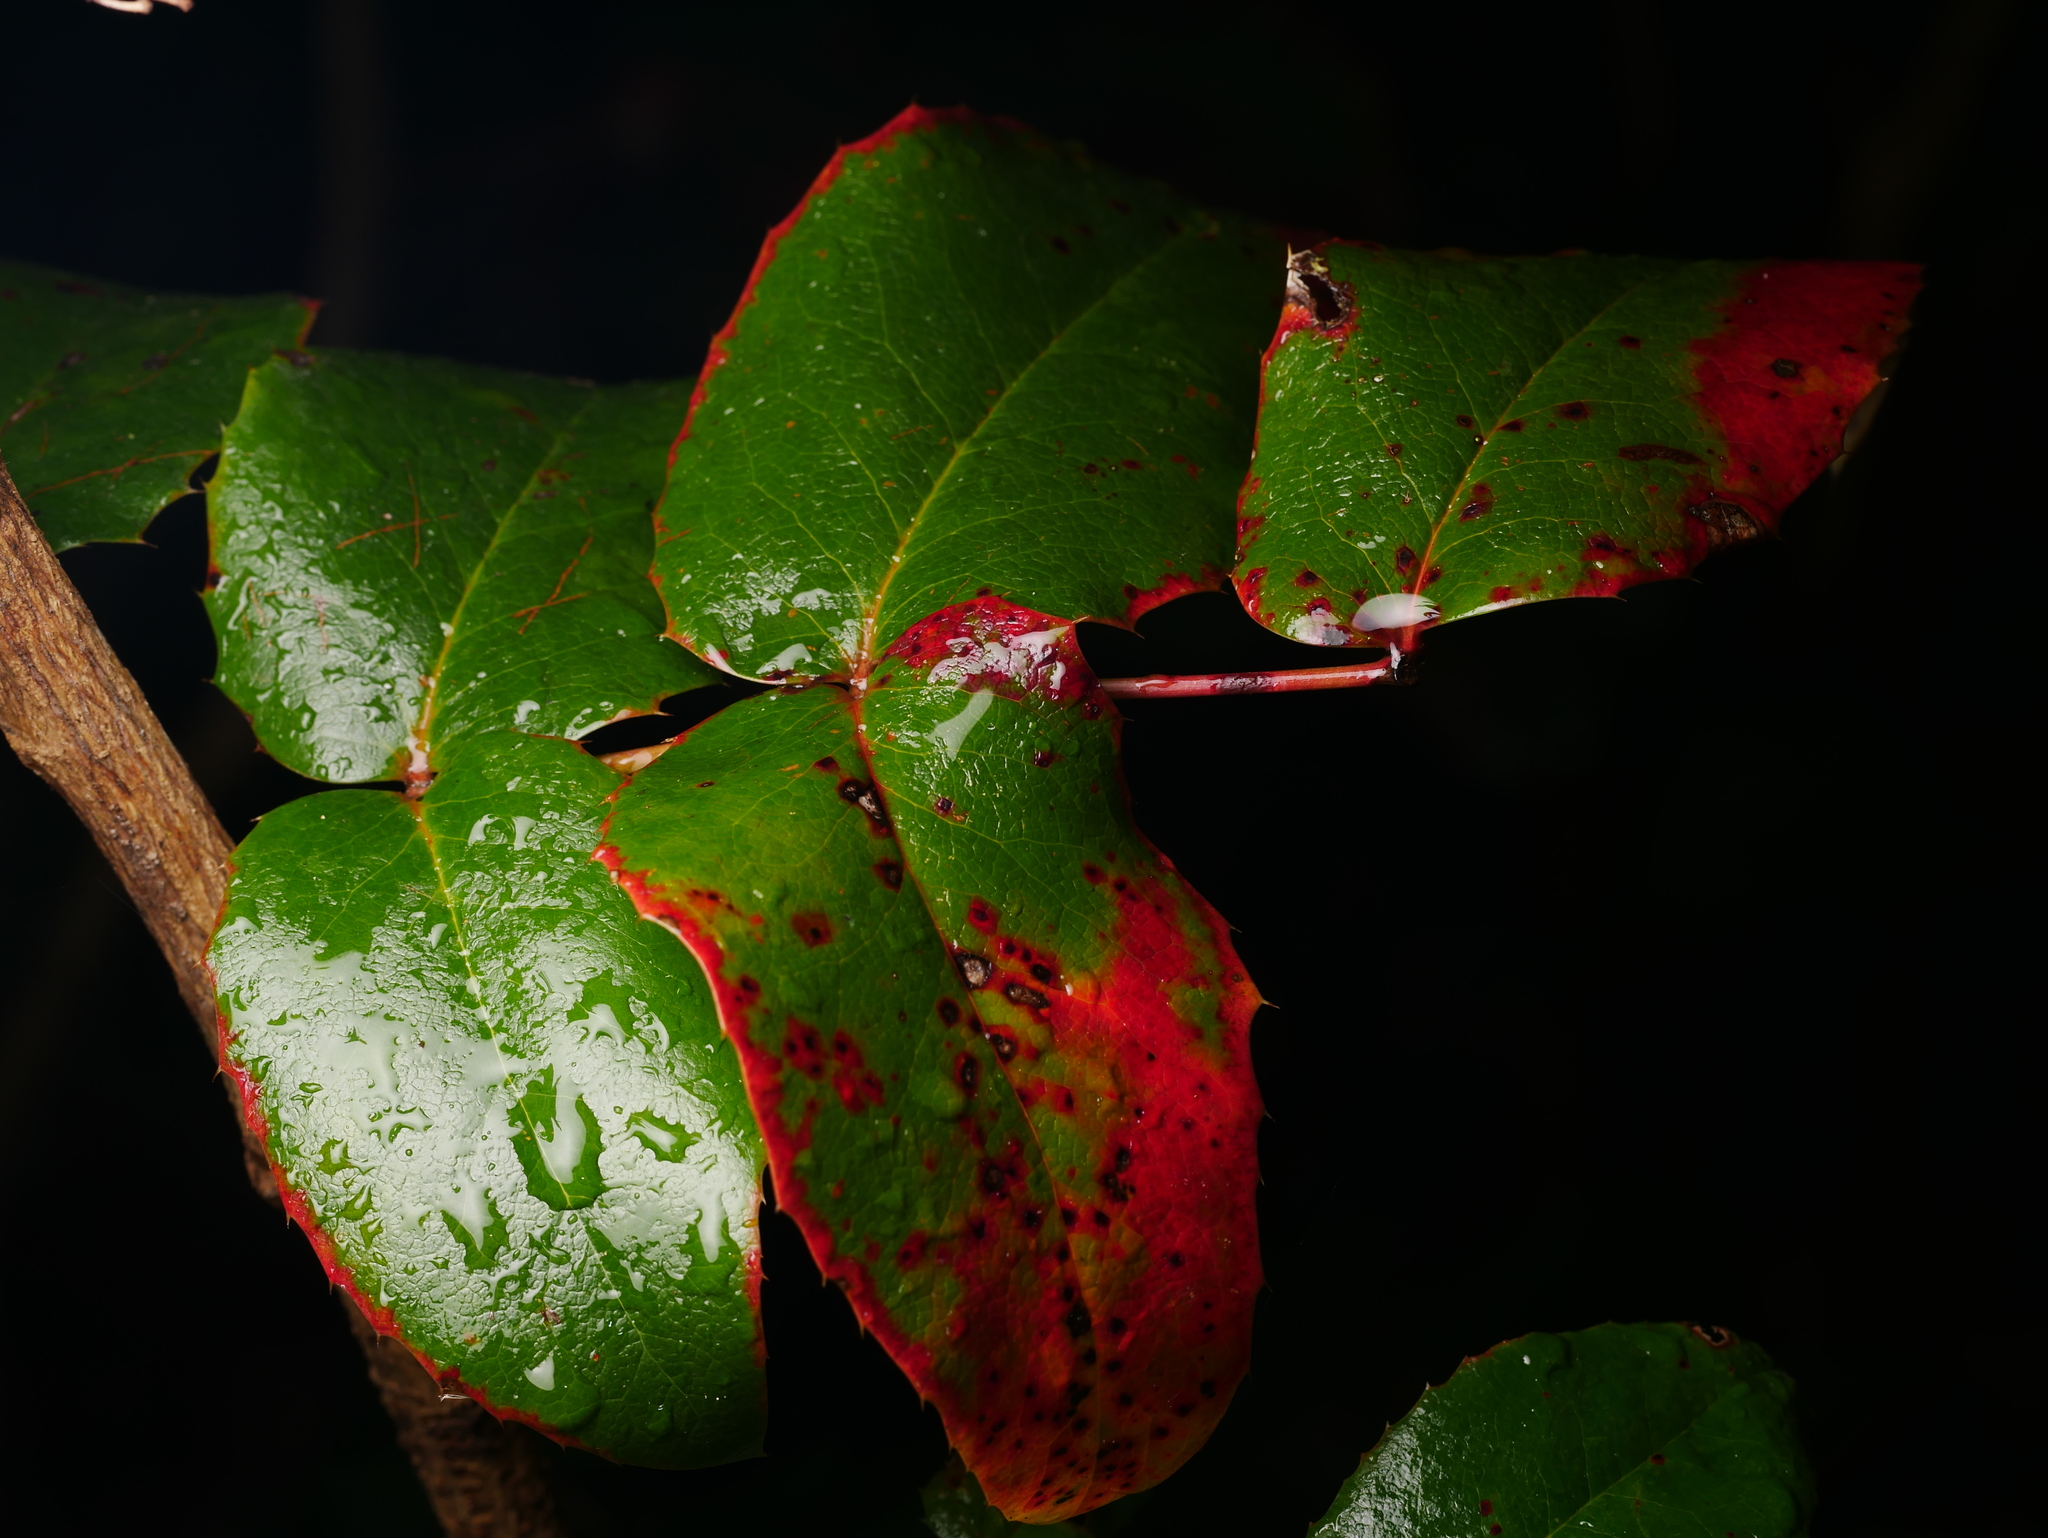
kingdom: Plantae
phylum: Tracheophyta
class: Magnoliopsida
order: Ranunculales
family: Berberidaceae
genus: Mahonia
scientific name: Mahonia aquifolium
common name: Oregon-grape
